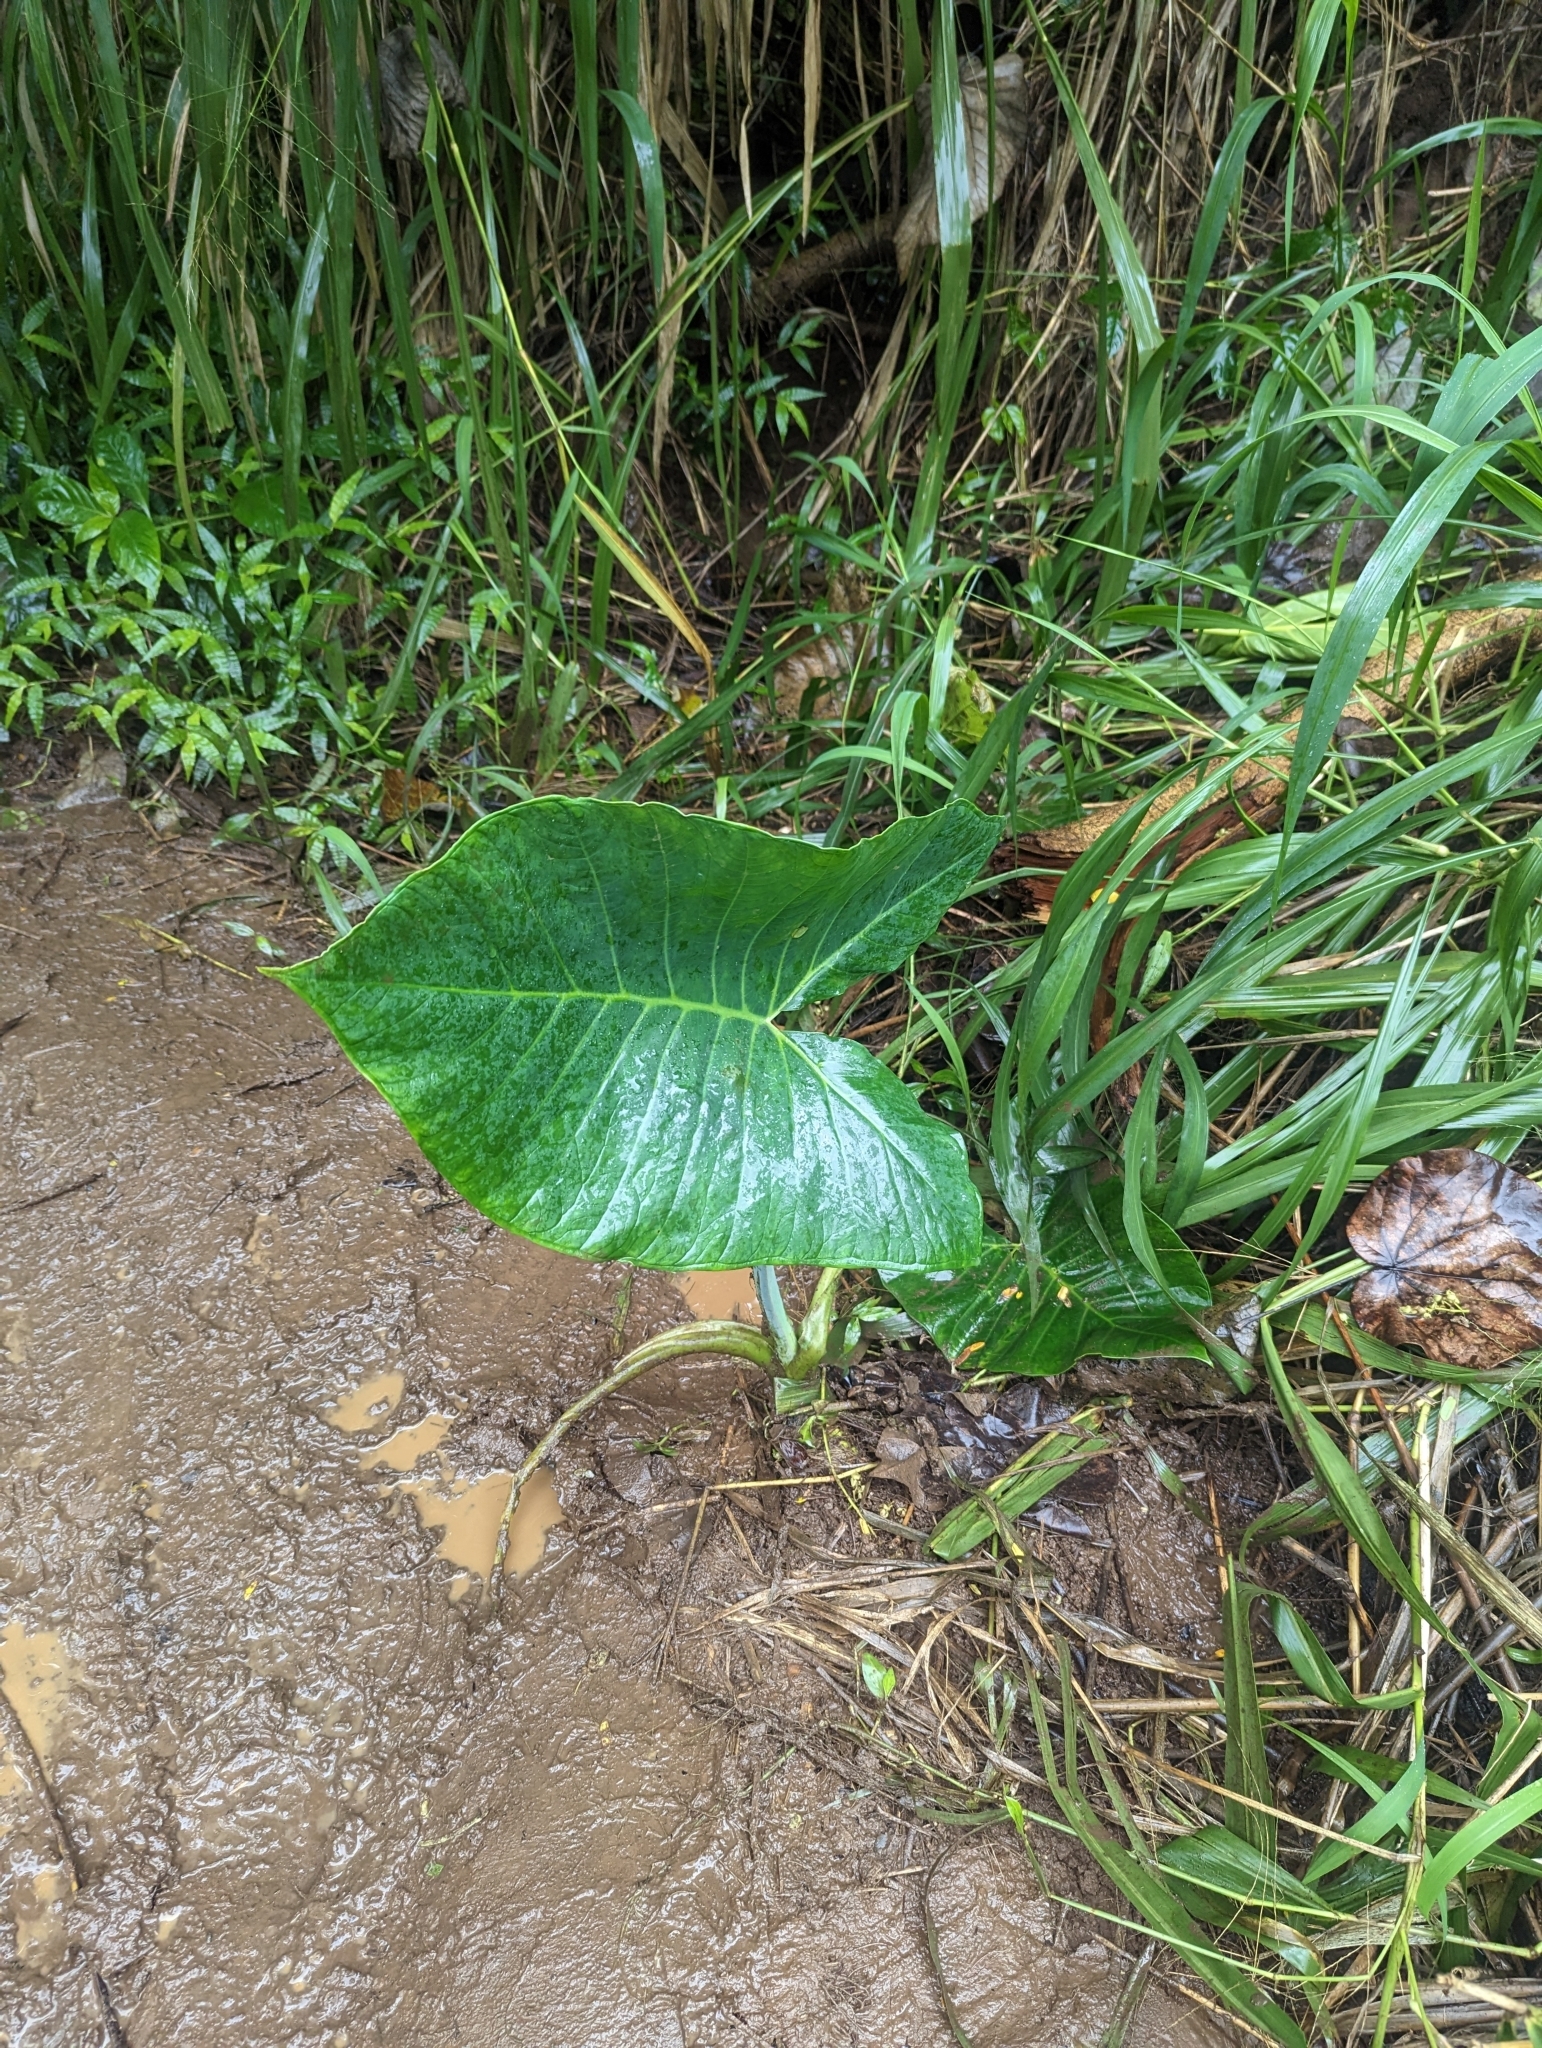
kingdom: Plantae
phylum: Tracheophyta
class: Liliopsida
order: Alismatales
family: Araceae
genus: Xanthosoma
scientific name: Xanthosoma robustum
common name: Capote
